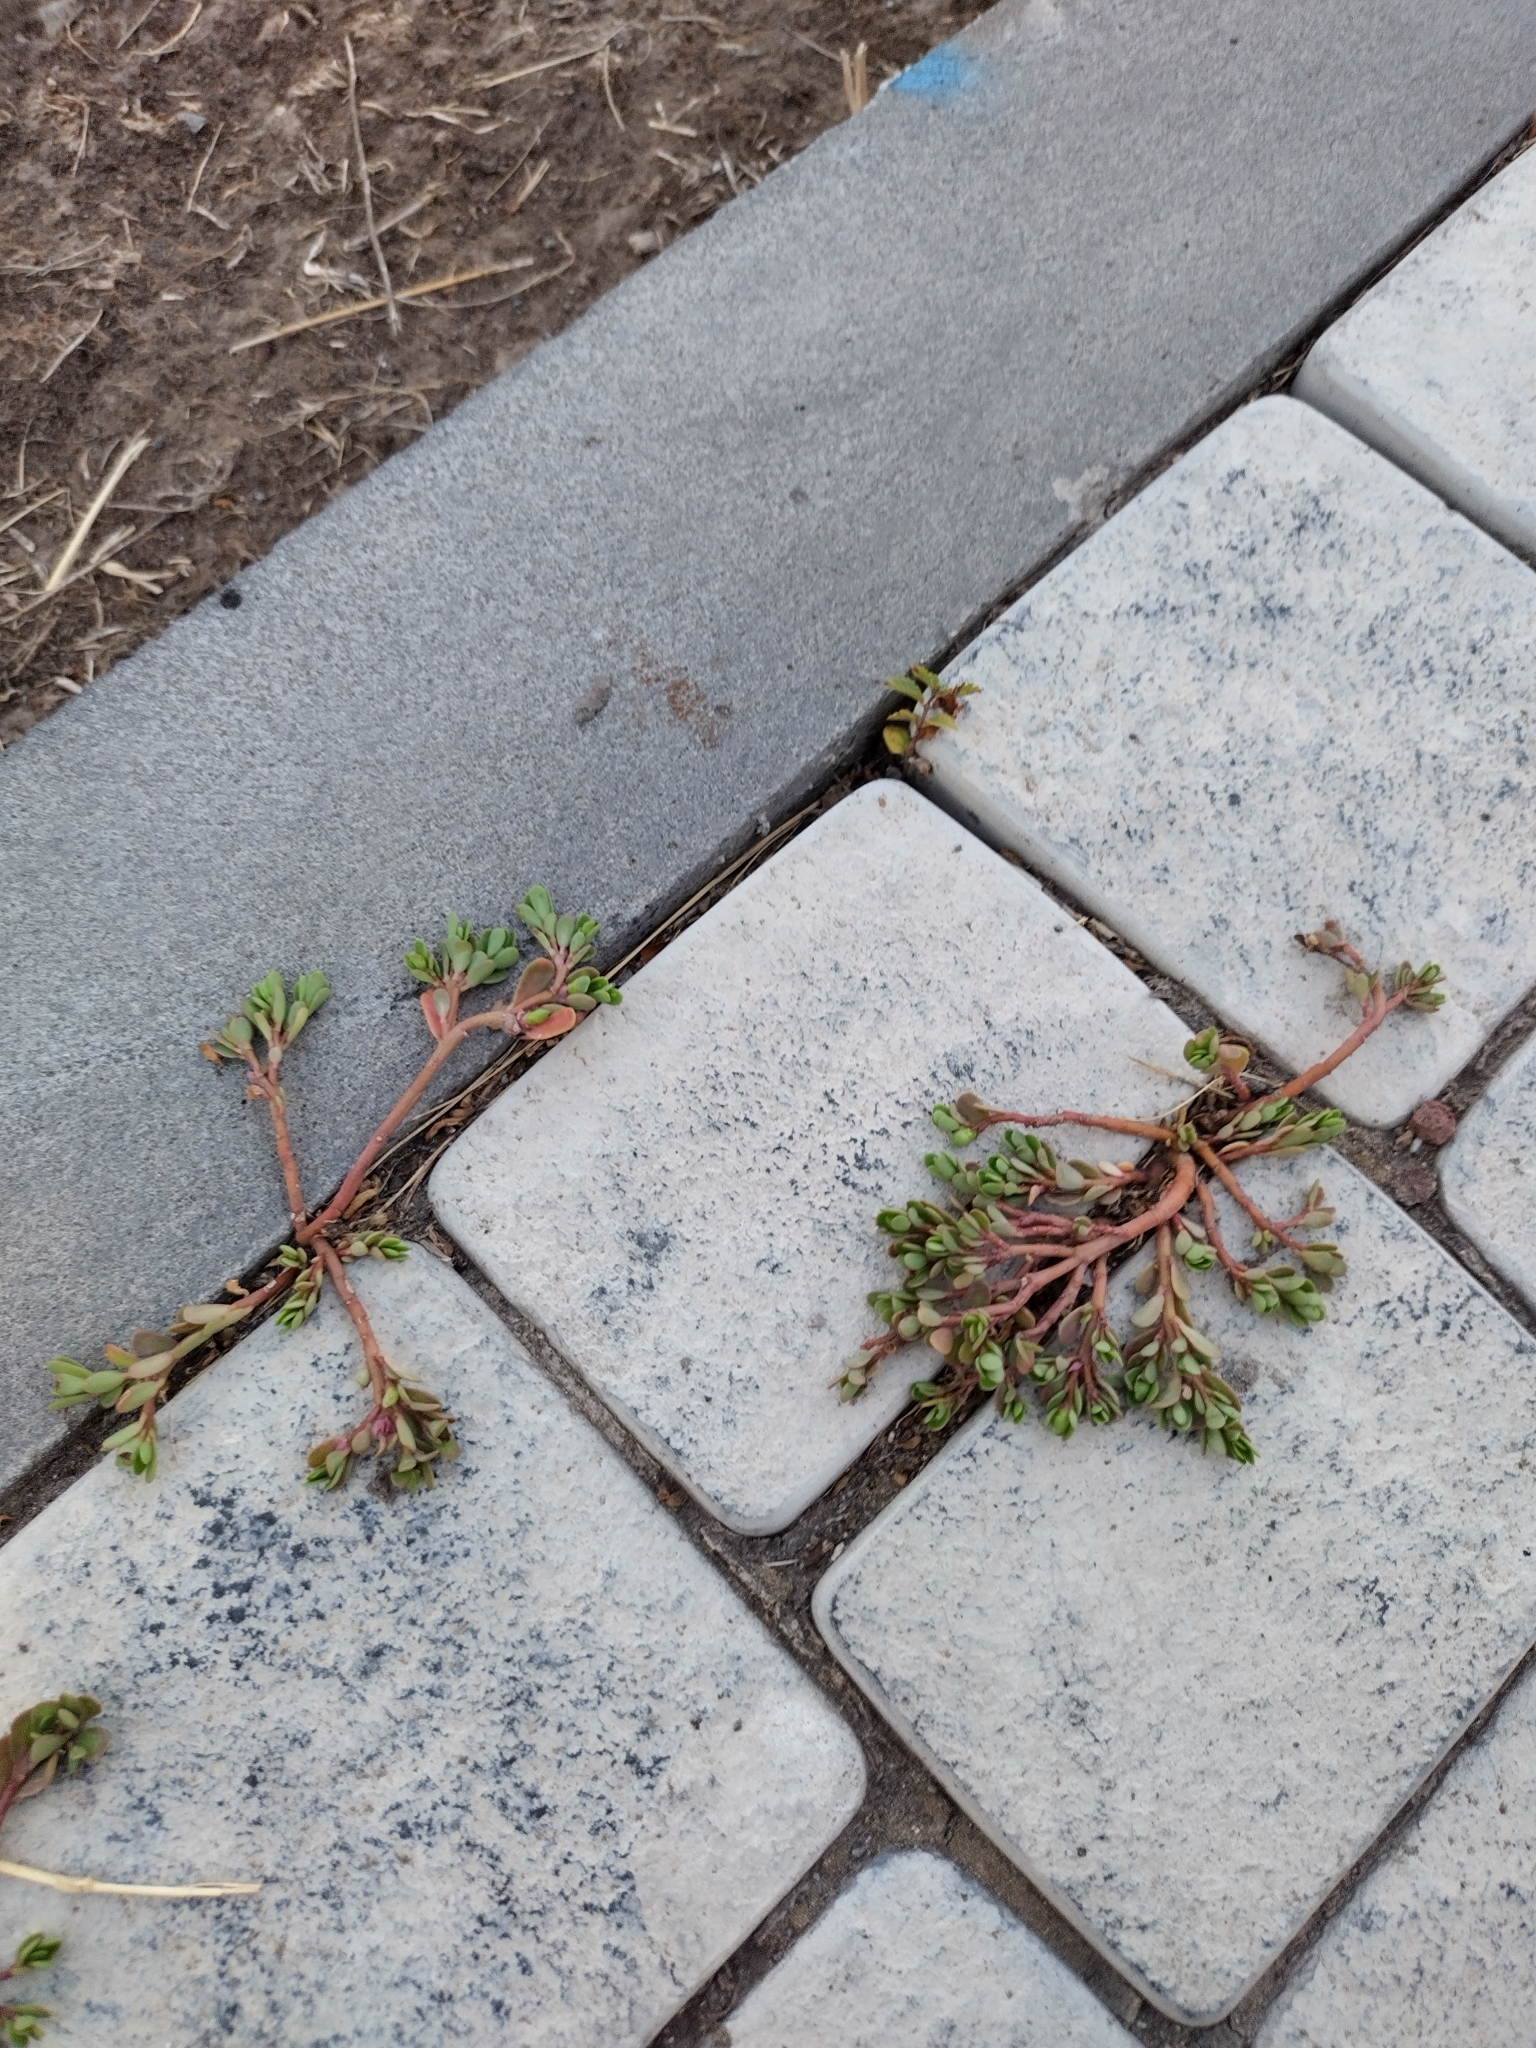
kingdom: Plantae
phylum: Tracheophyta
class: Magnoliopsida
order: Caryophyllales
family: Portulacaceae
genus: Portulaca
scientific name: Portulaca oleracea
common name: Common purslane
